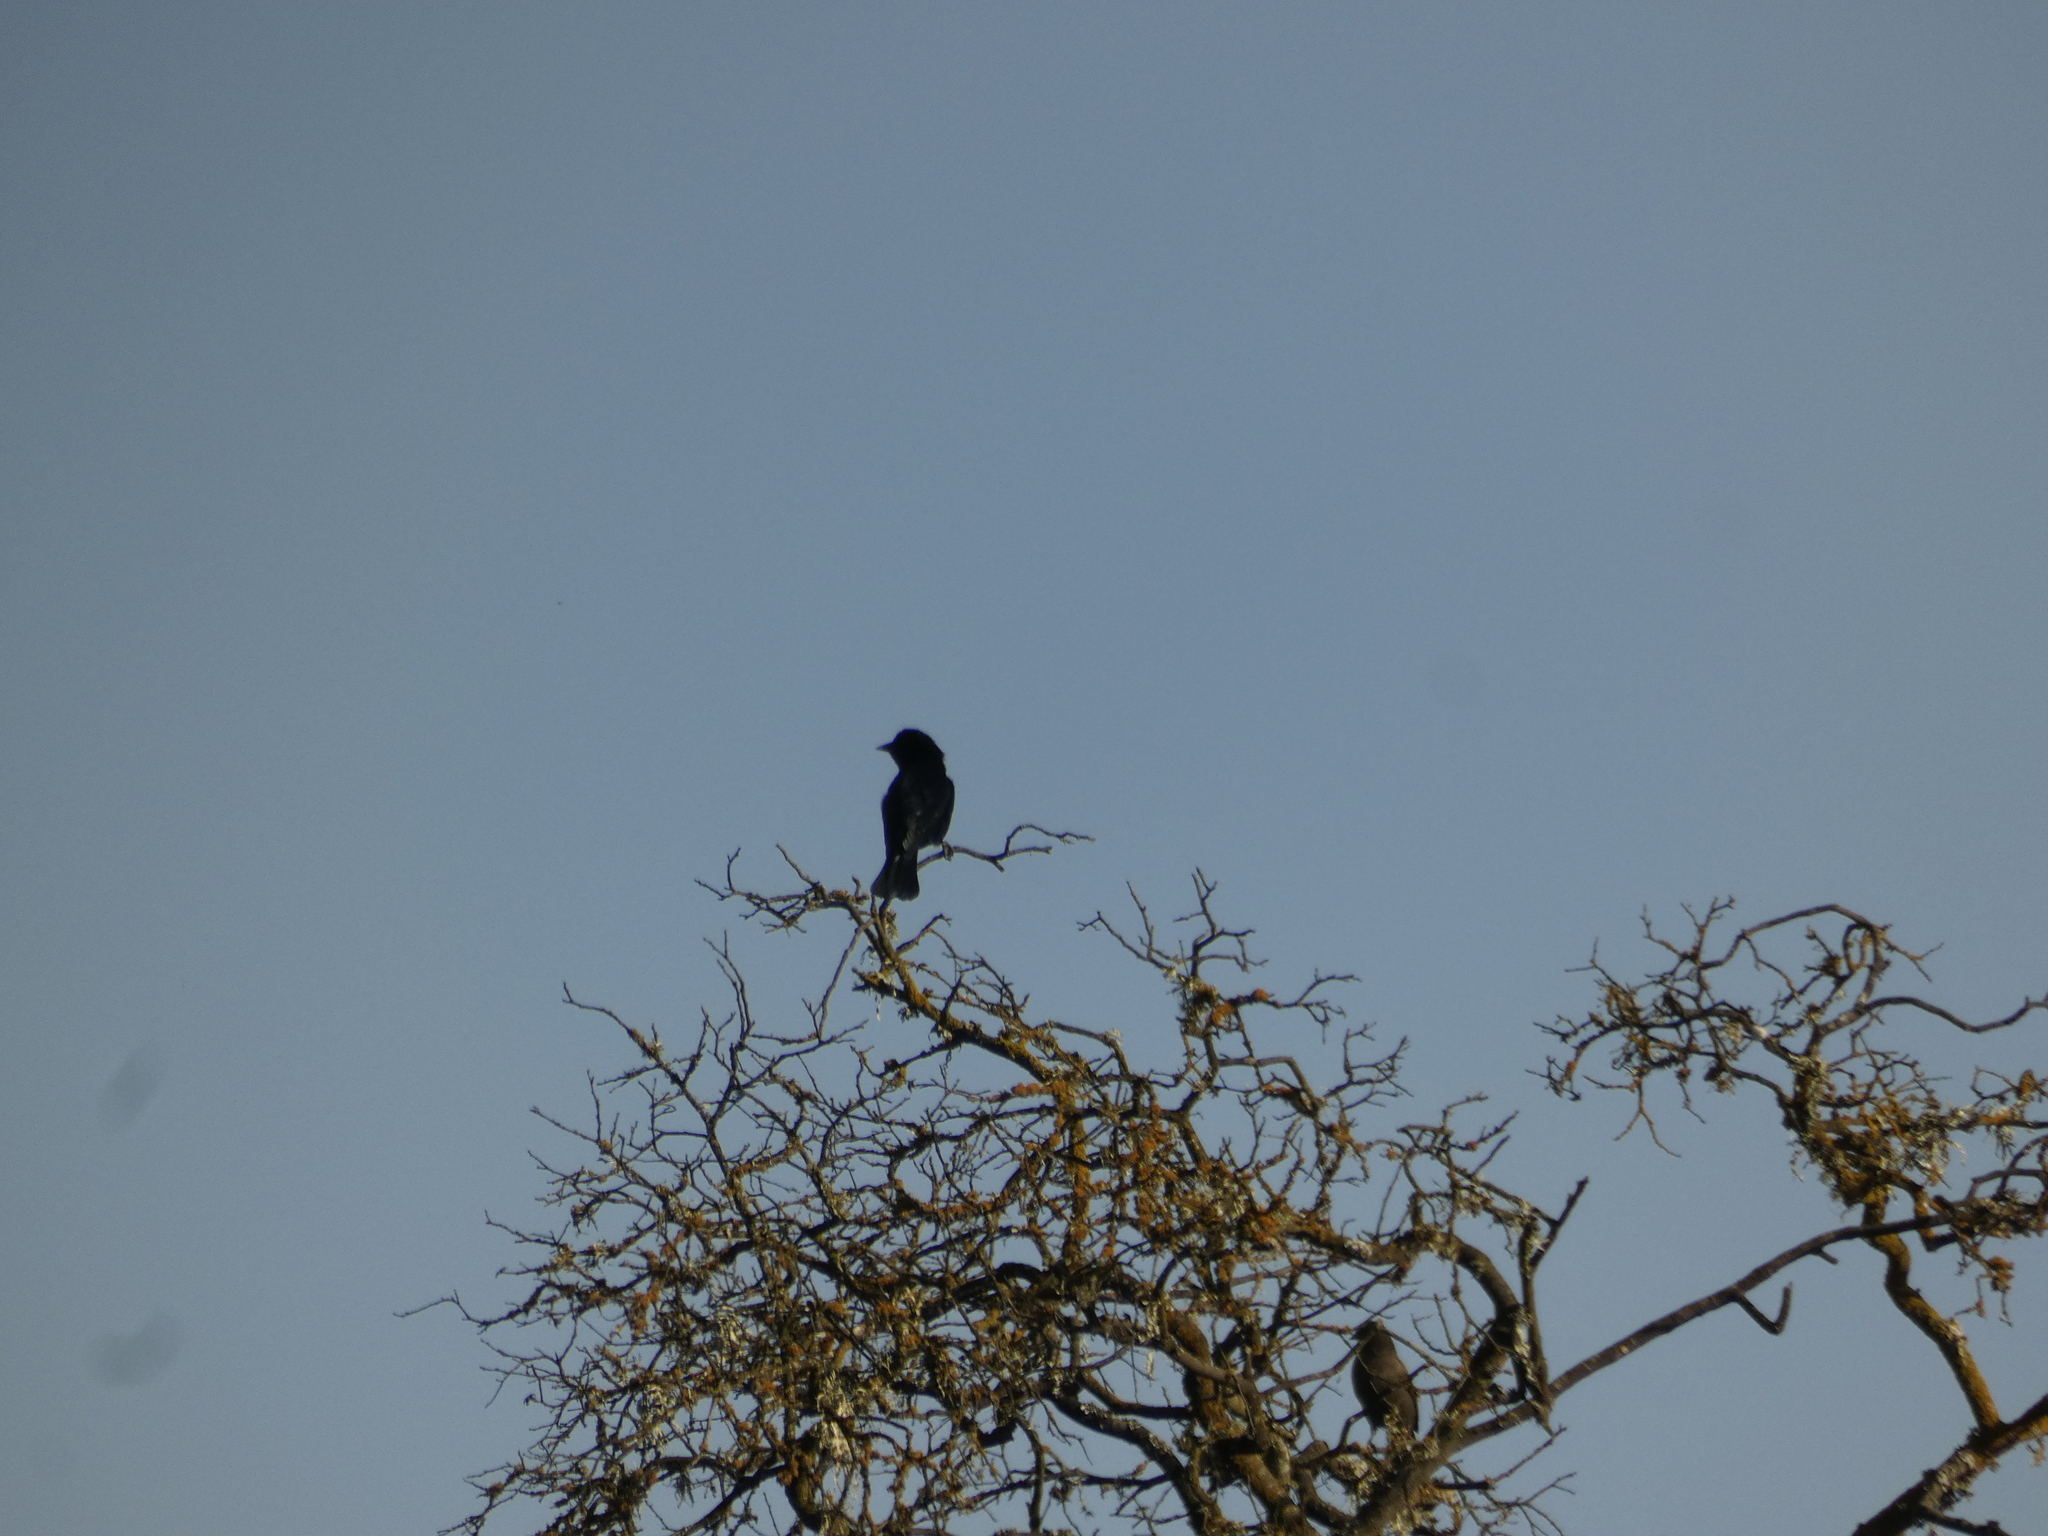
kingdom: Animalia
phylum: Chordata
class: Aves
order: Passeriformes
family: Icteridae
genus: Curaeus
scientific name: Curaeus curaeus
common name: Austral blackbird
